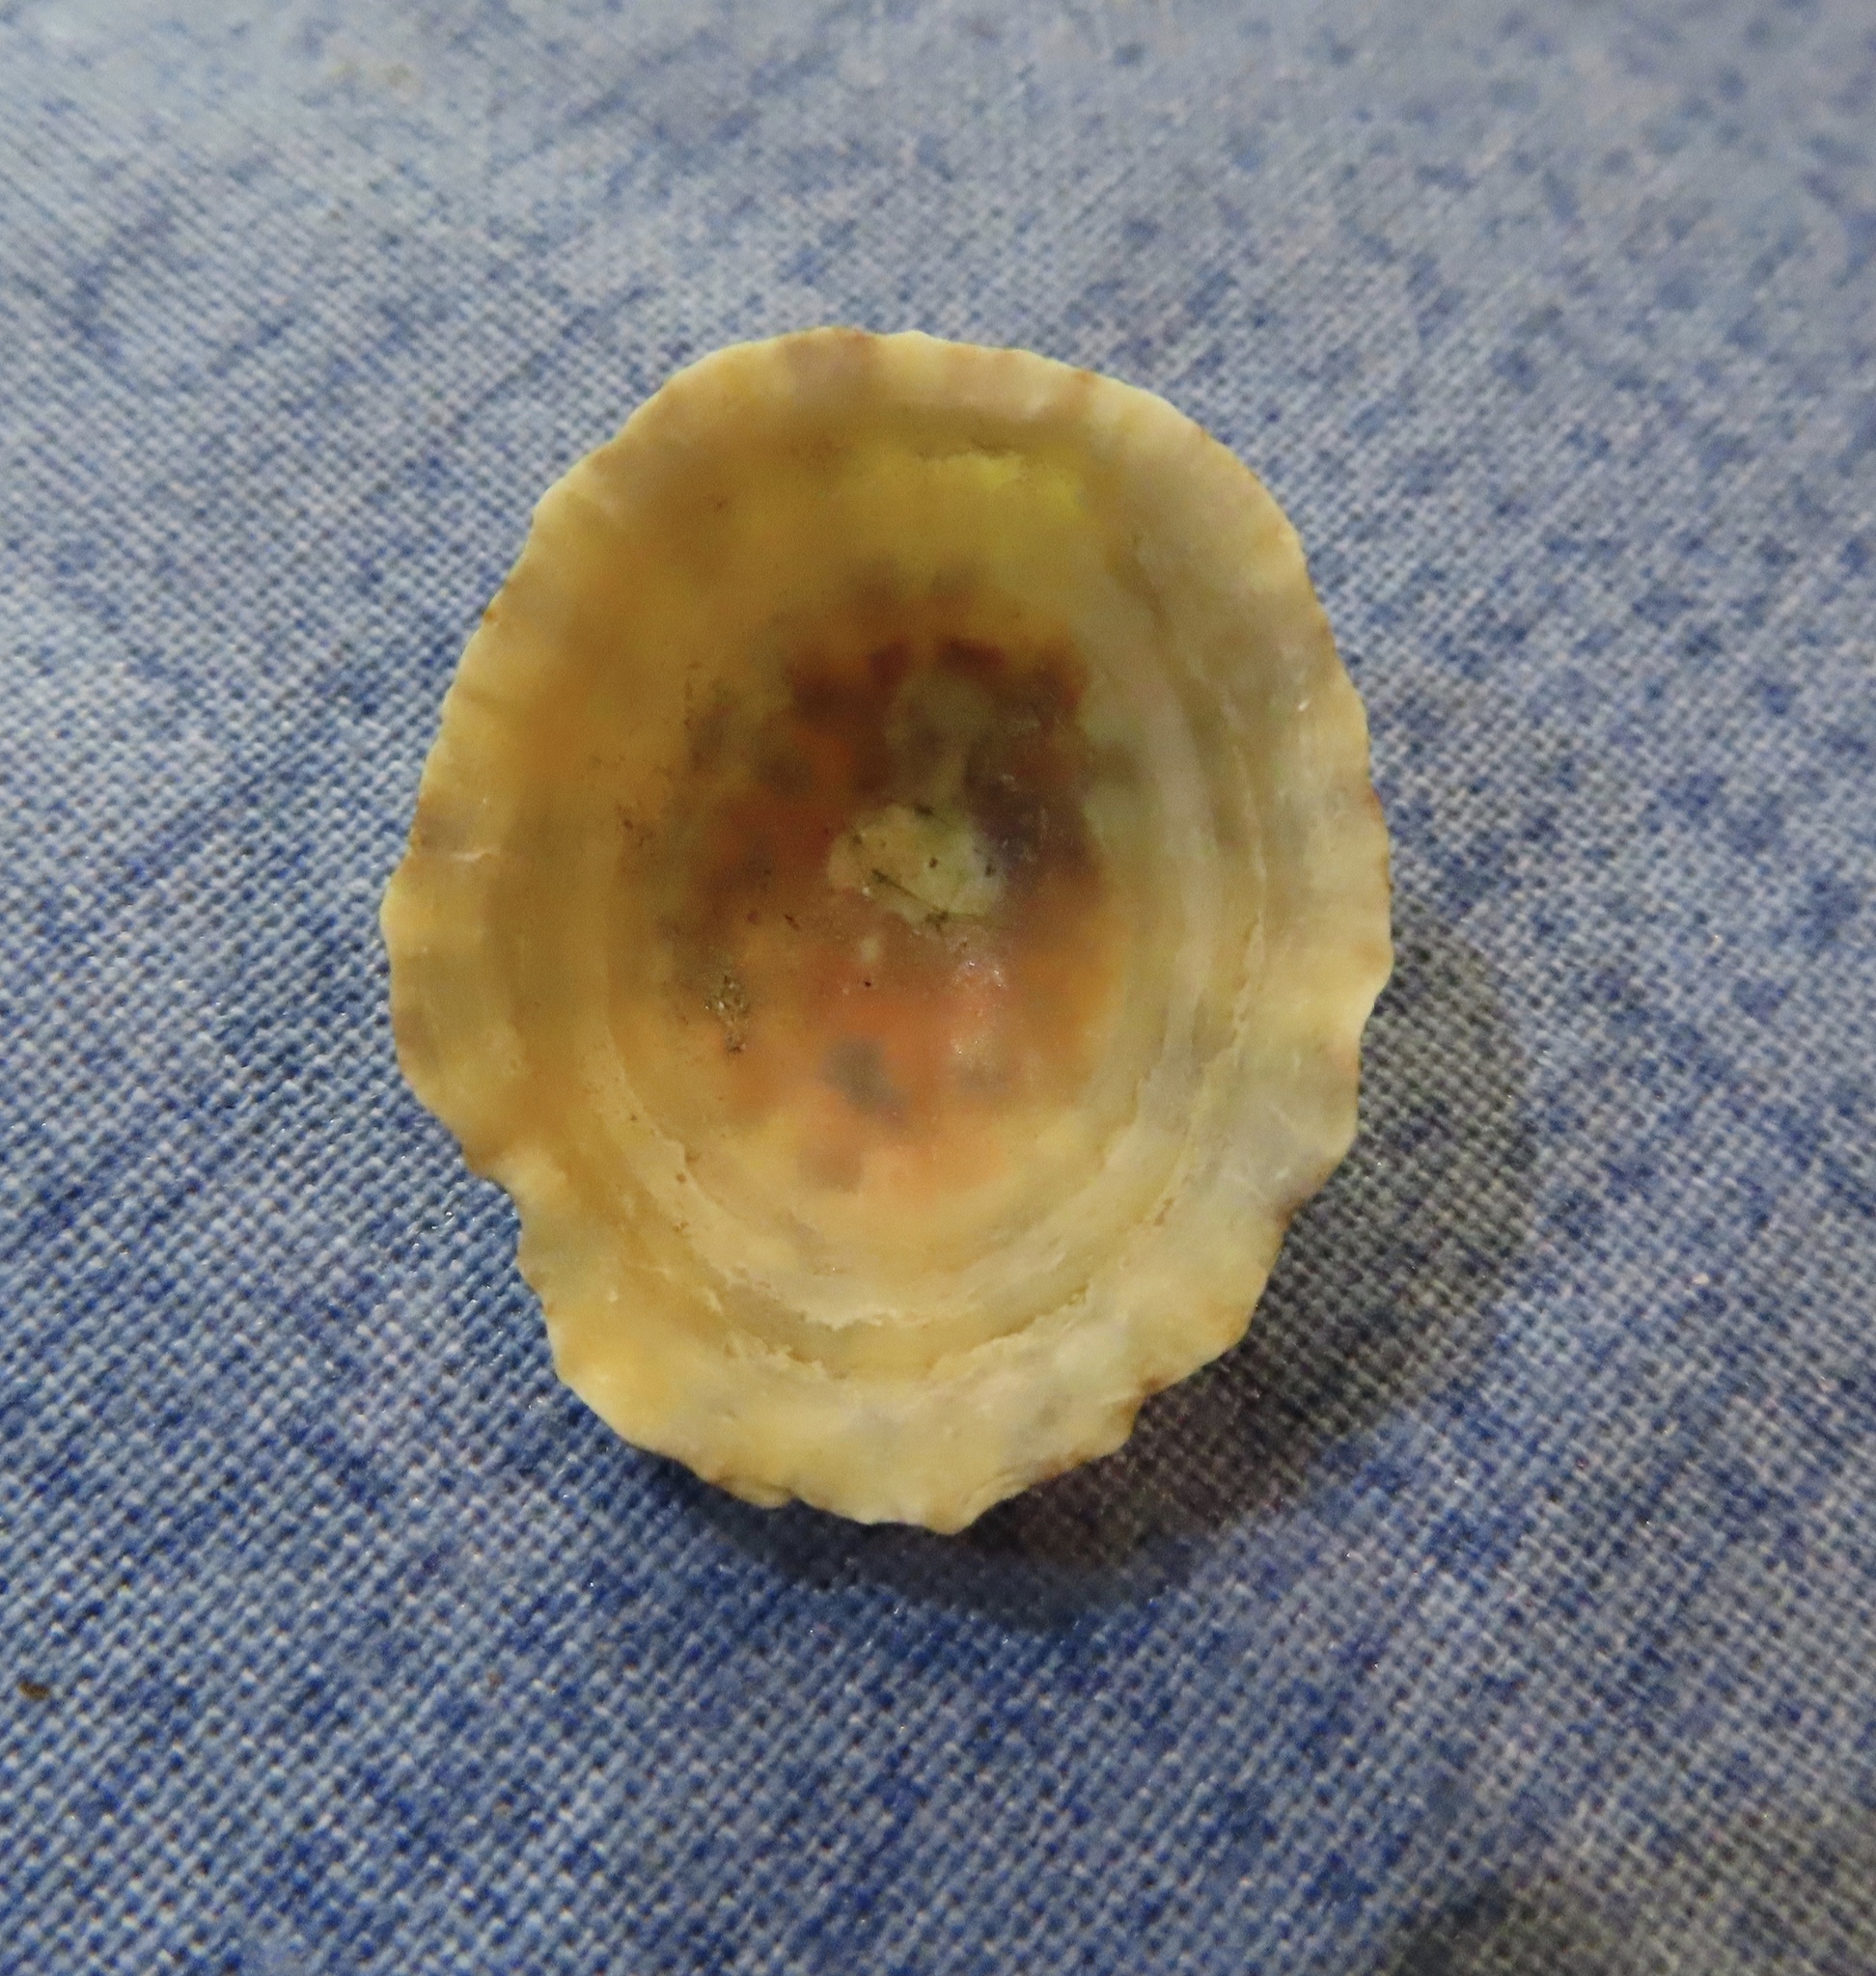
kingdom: Animalia
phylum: Mollusca
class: Gastropoda
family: Patellidae
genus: Patella
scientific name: Patella
